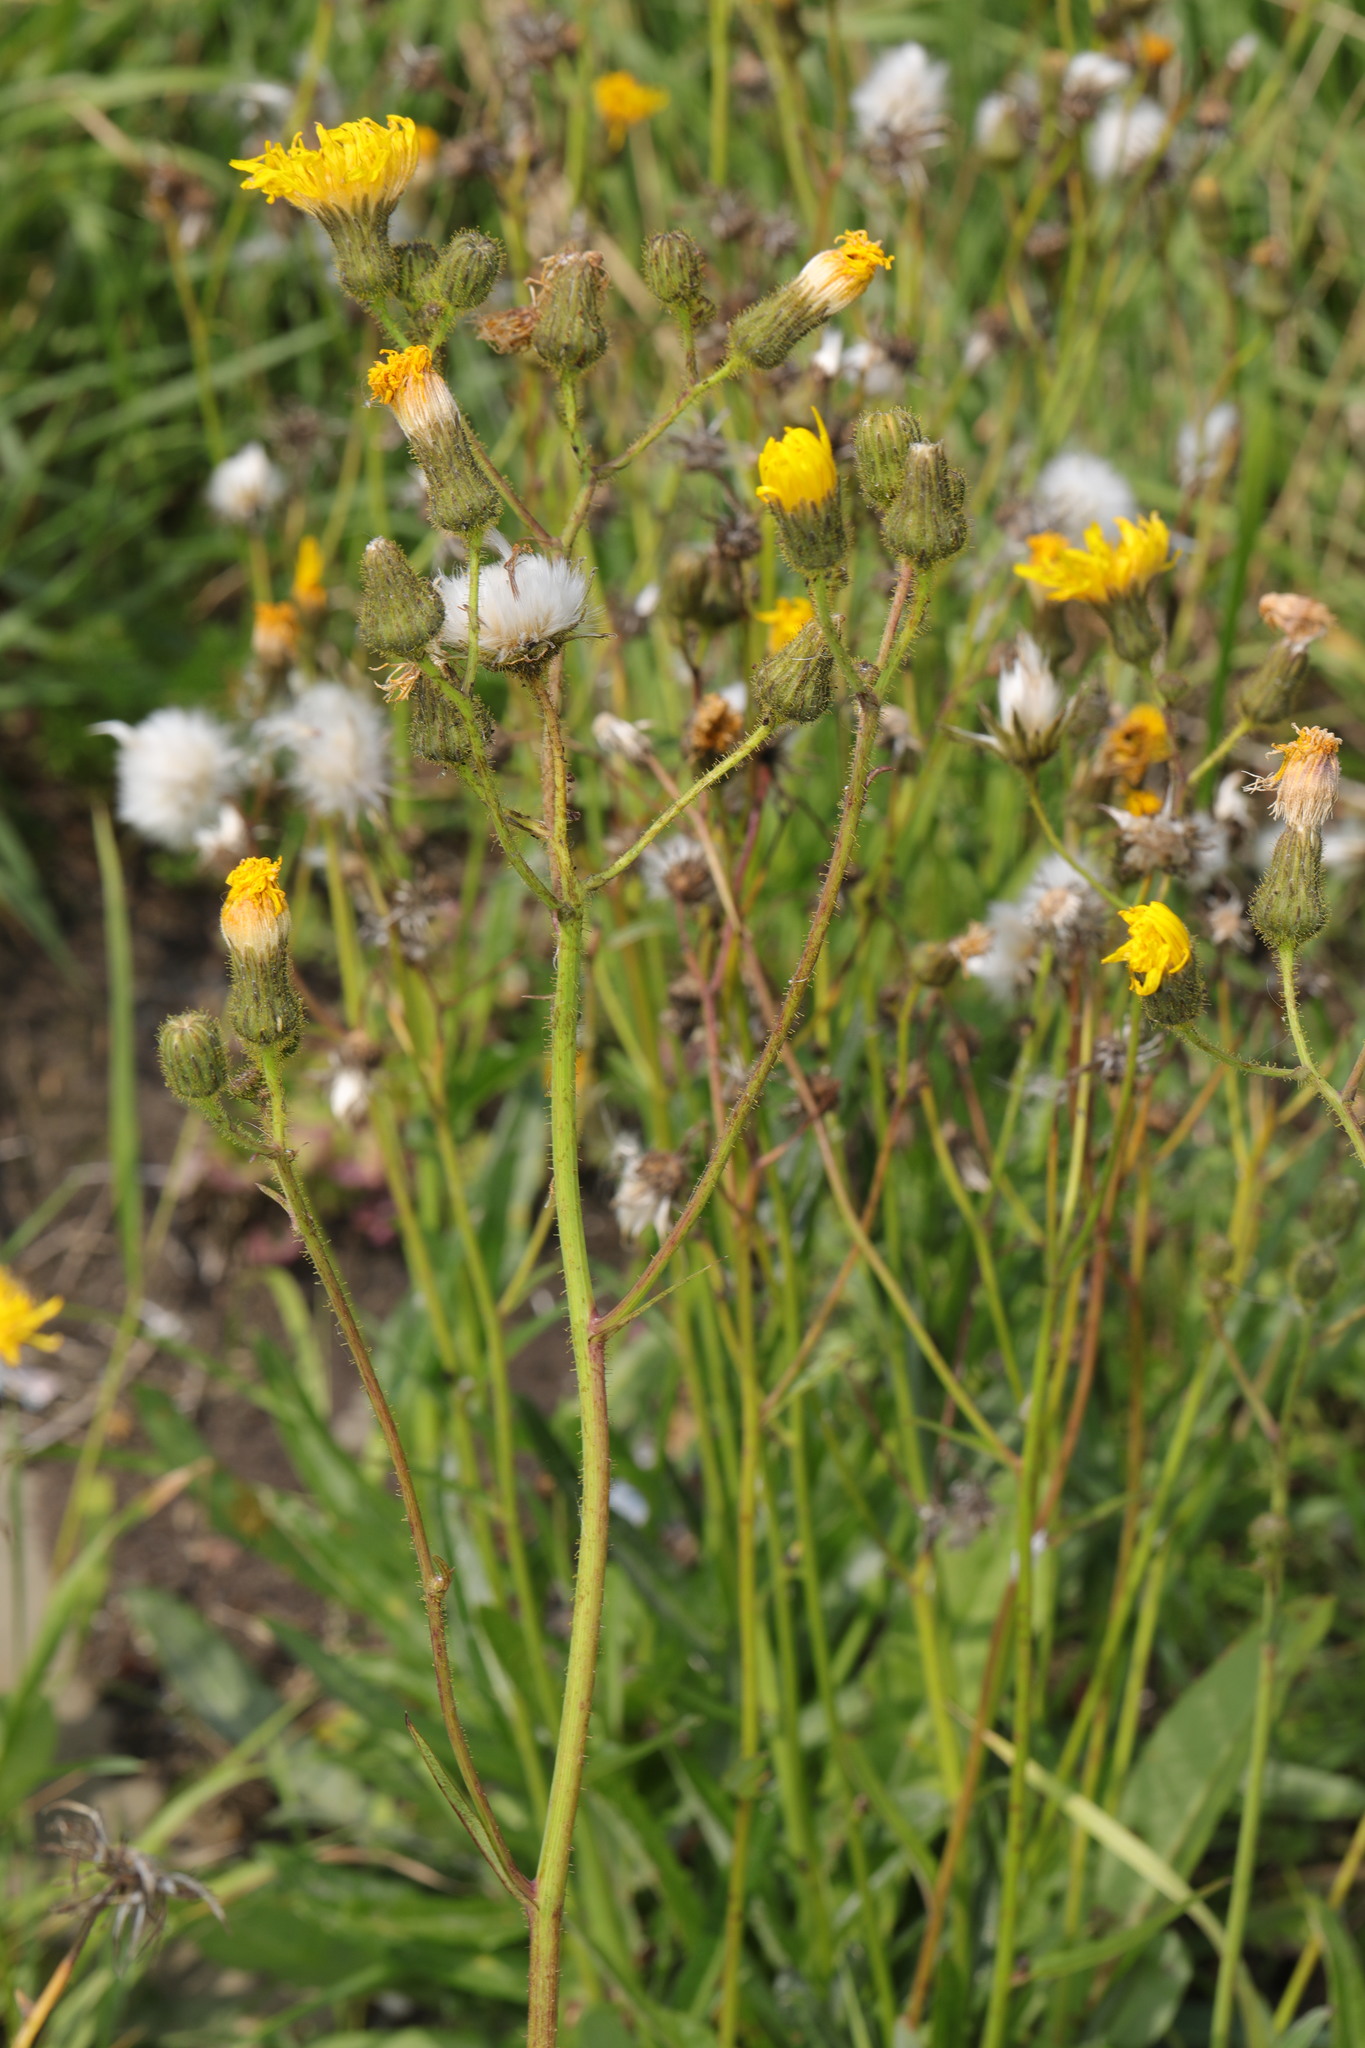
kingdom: Plantae
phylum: Tracheophyta
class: Magnoliopsida
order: Asterales
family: Asteraceae
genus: Sonchus
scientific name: Sonchus arvensis
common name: Perennial sow-thistle
